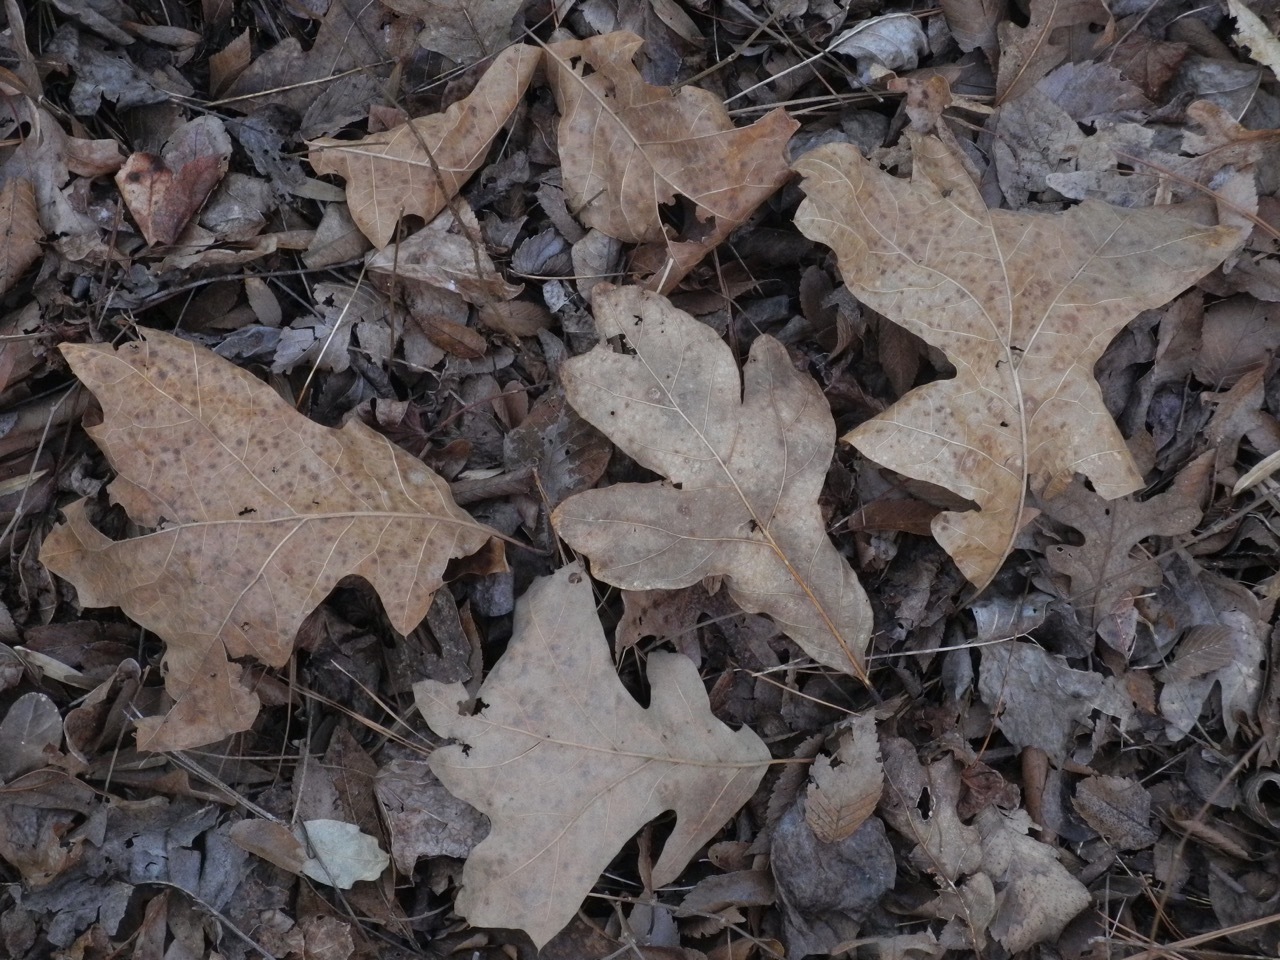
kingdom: Plantae
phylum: Tracheophyta
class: Magnoliopsida
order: Fagales
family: Fagaceae
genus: Quercus
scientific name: Quercus stellata
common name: Post oak
